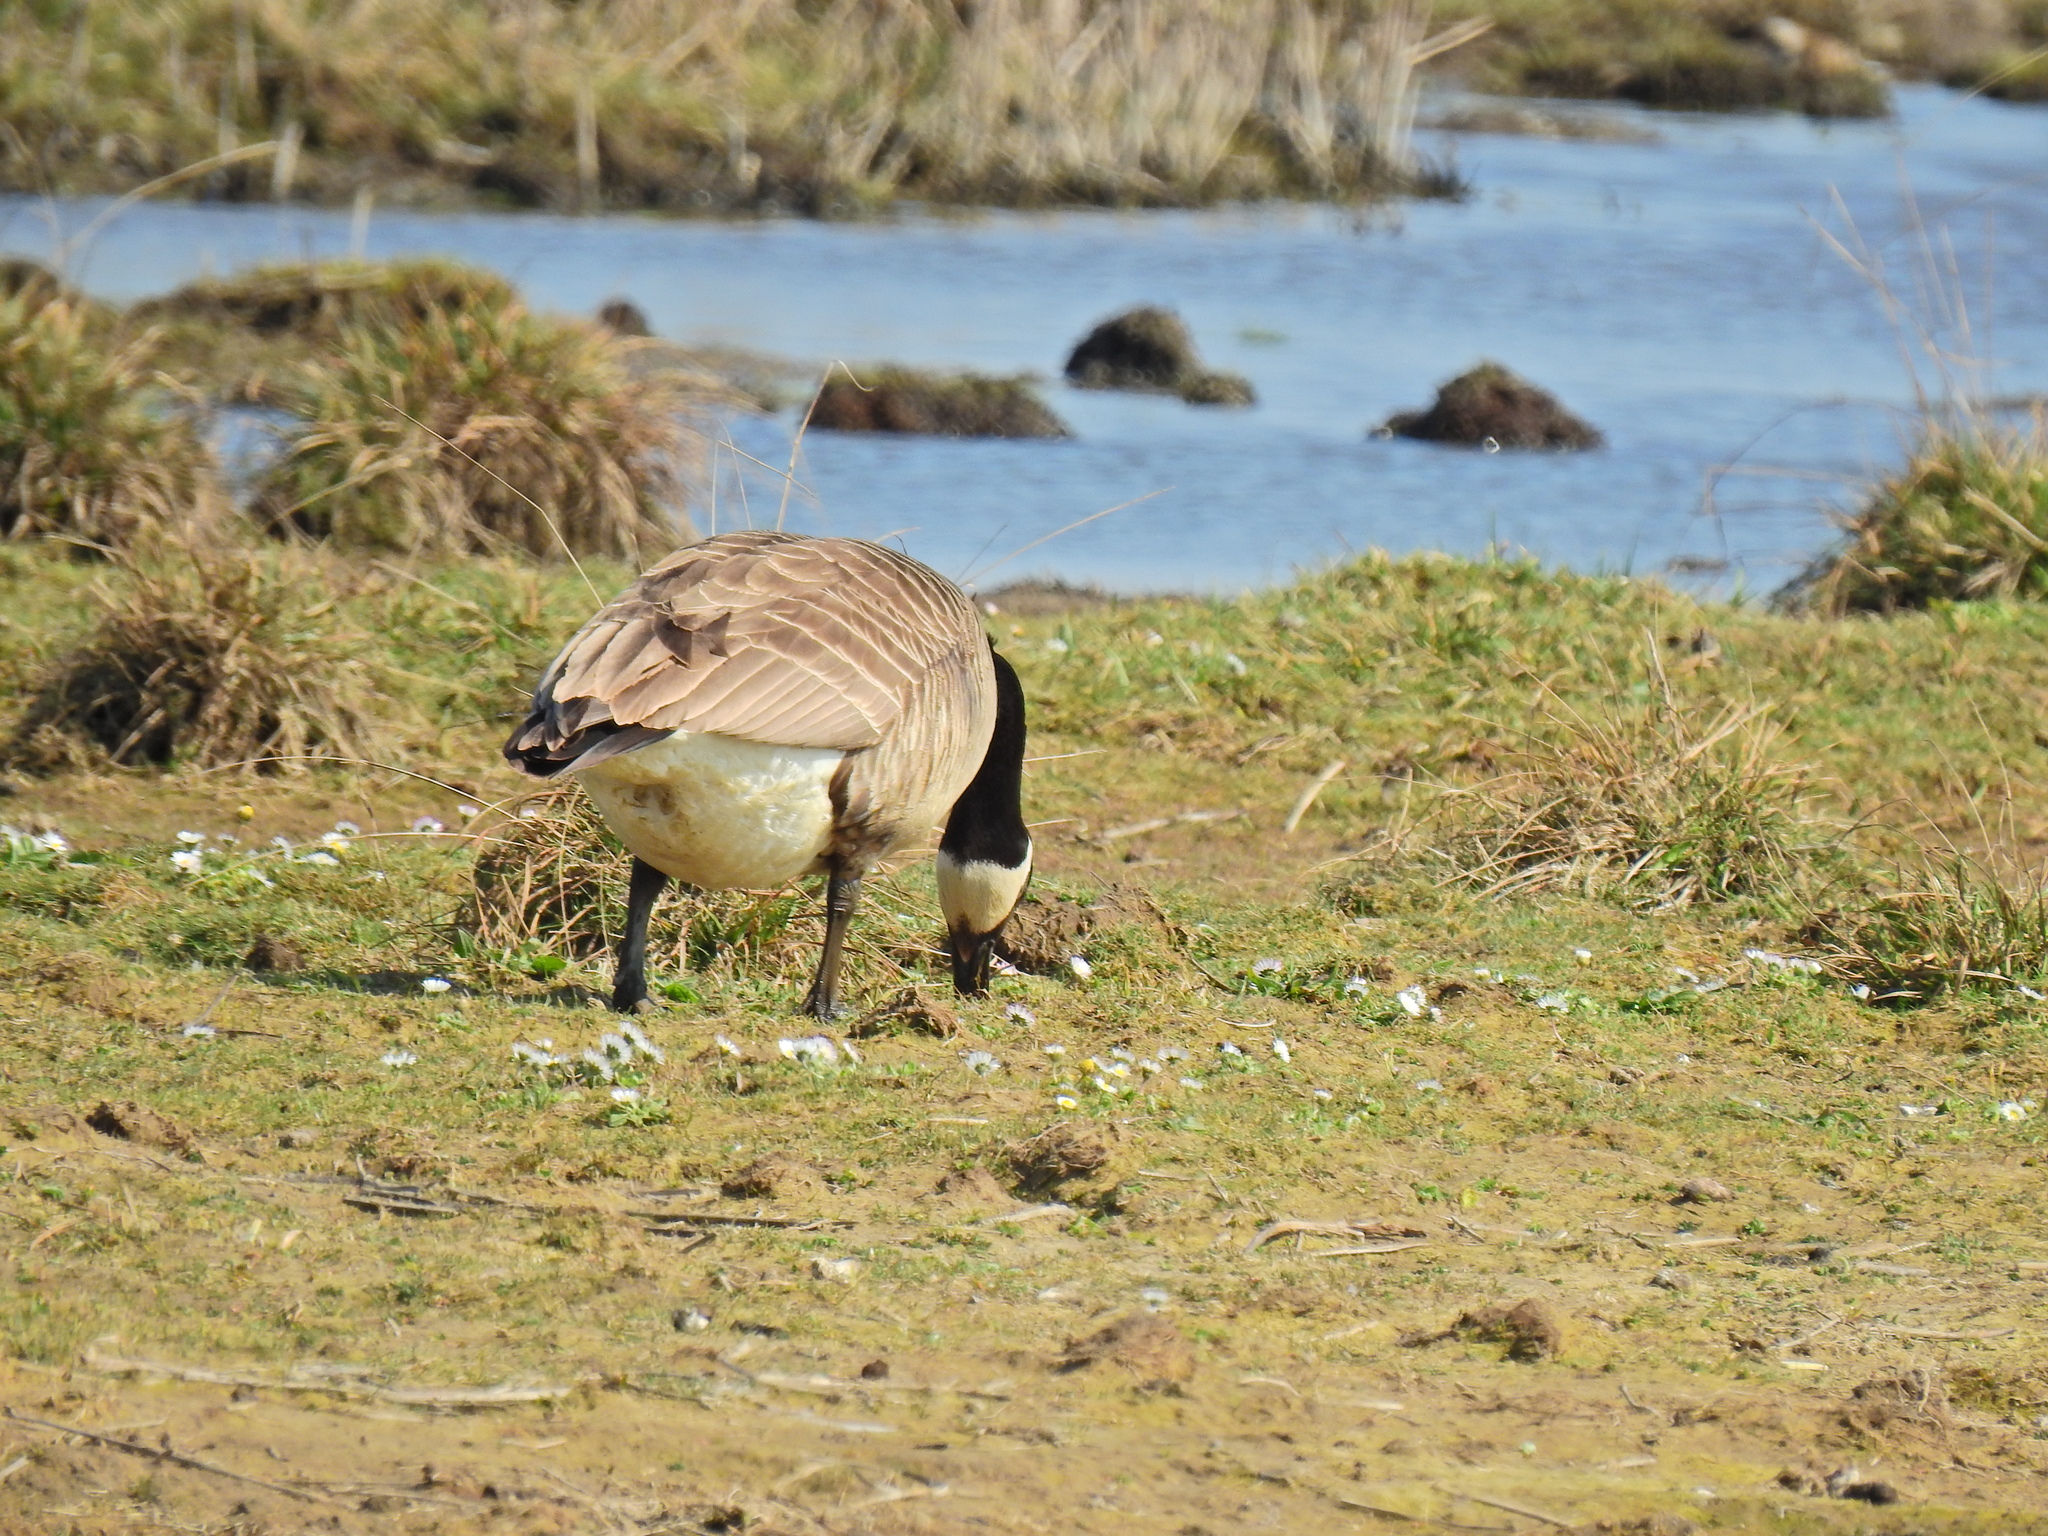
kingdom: Animalia
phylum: Chordata
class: Aves
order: Anseriformes
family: Anatidae
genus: Branta
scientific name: Branta canadensis
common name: Canada goose
